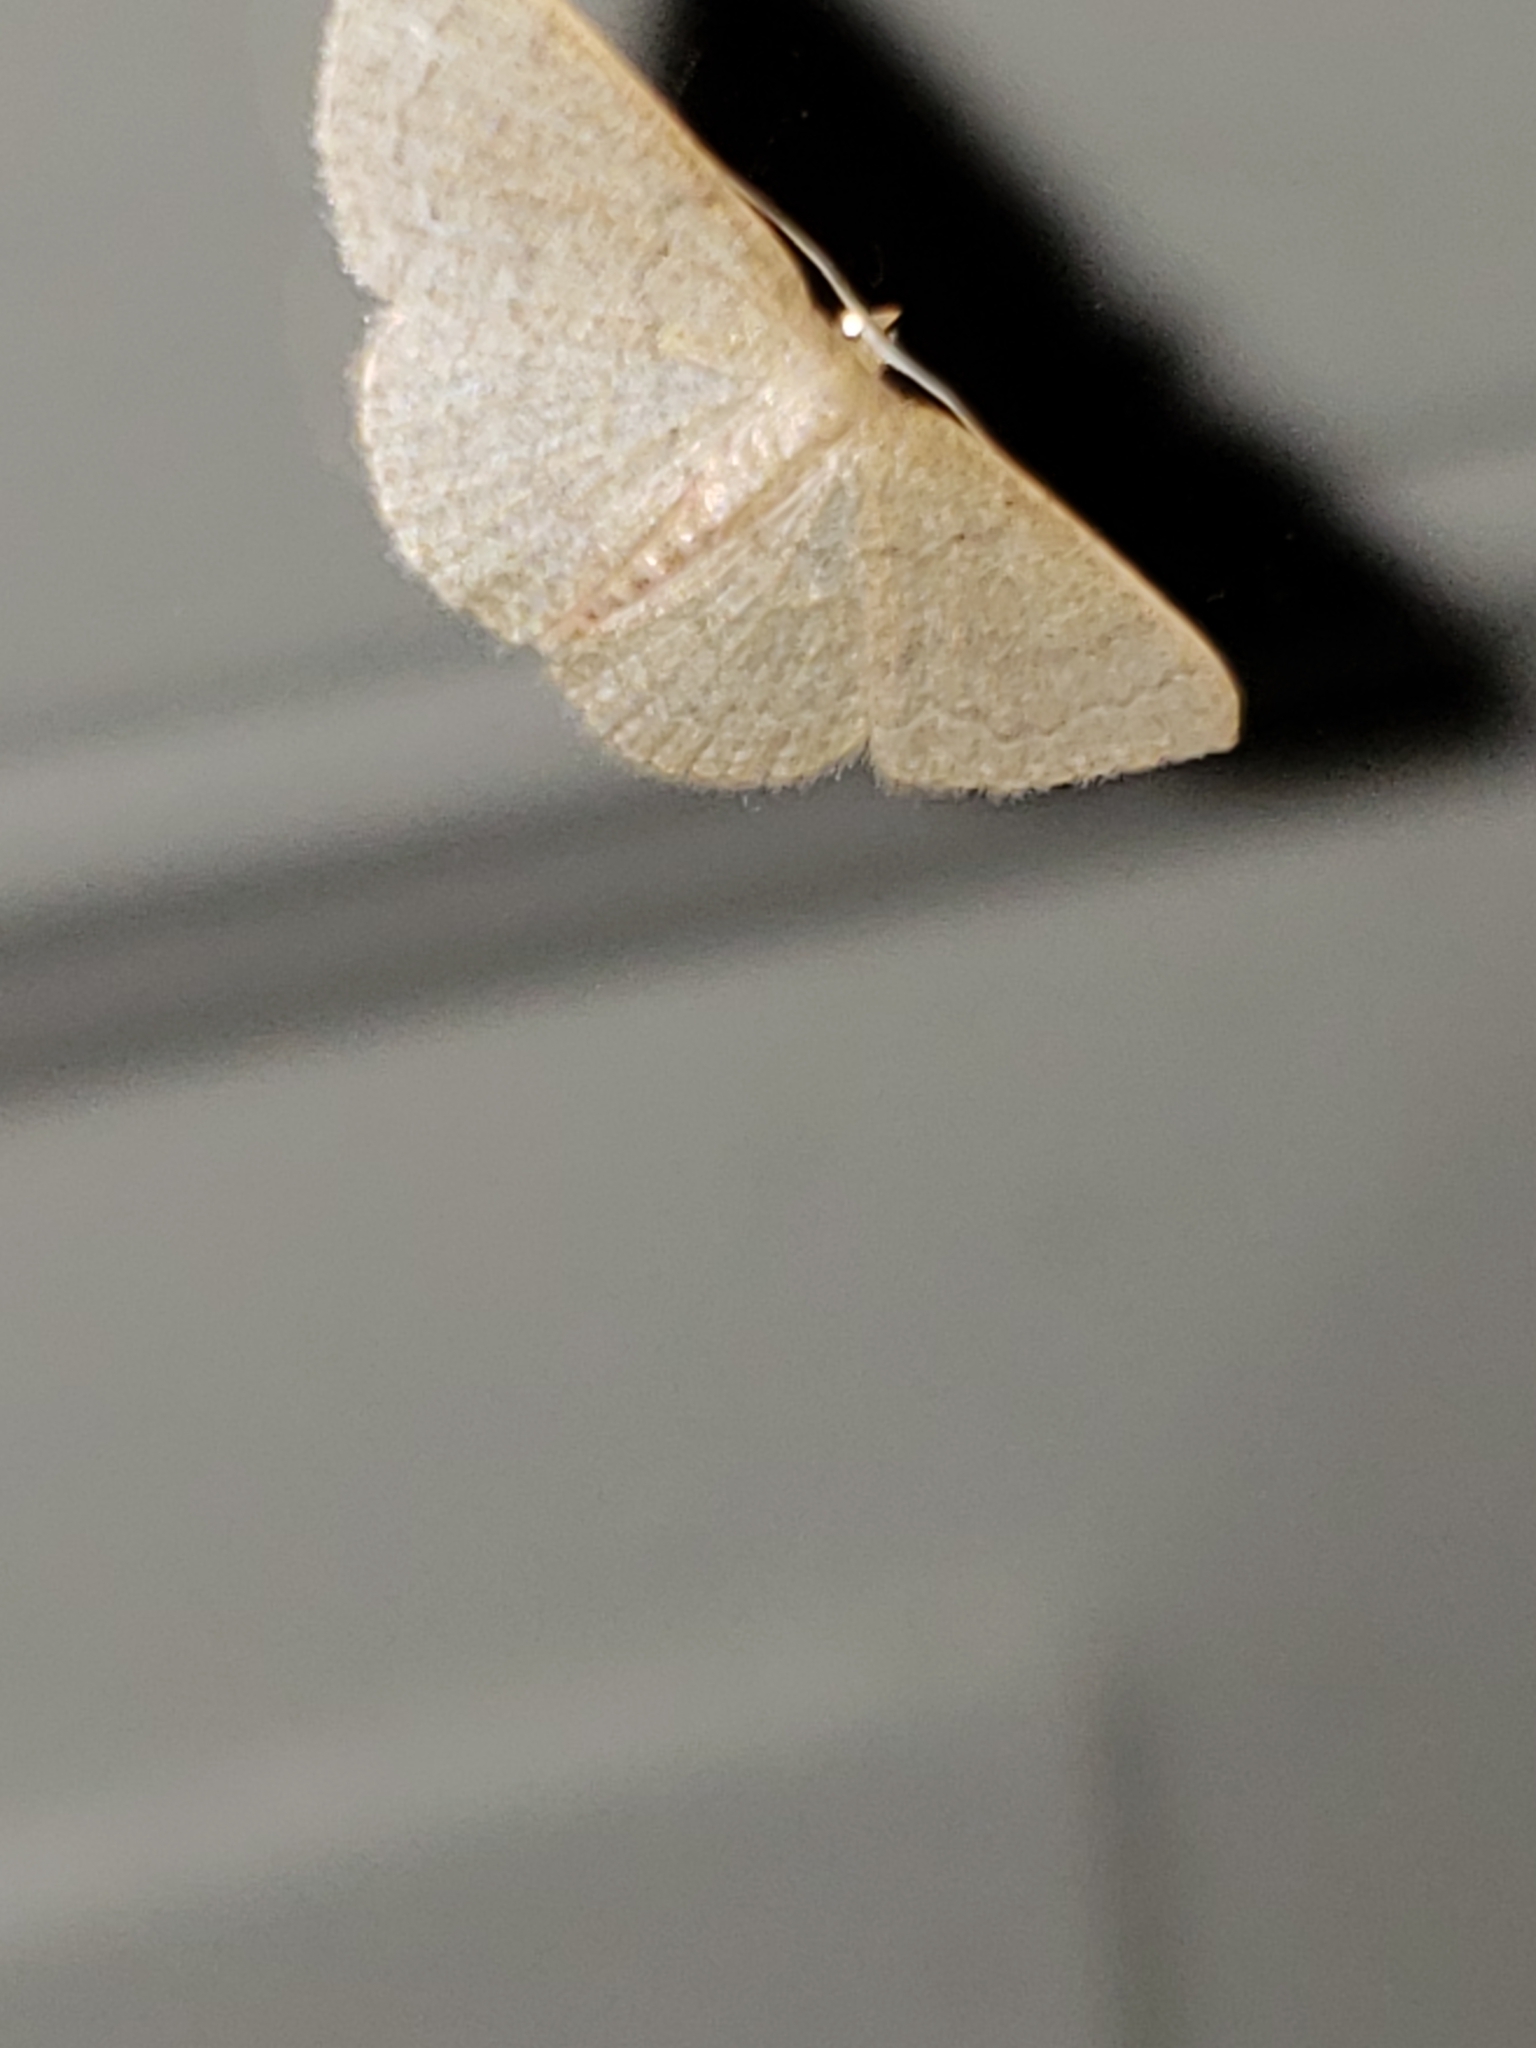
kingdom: Animalia
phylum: Arthropoda
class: Insecta
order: Lepidoptera
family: Geometridae
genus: Pleuroprucha
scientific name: Pleuroprucha insulsaria
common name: Common tan wave
